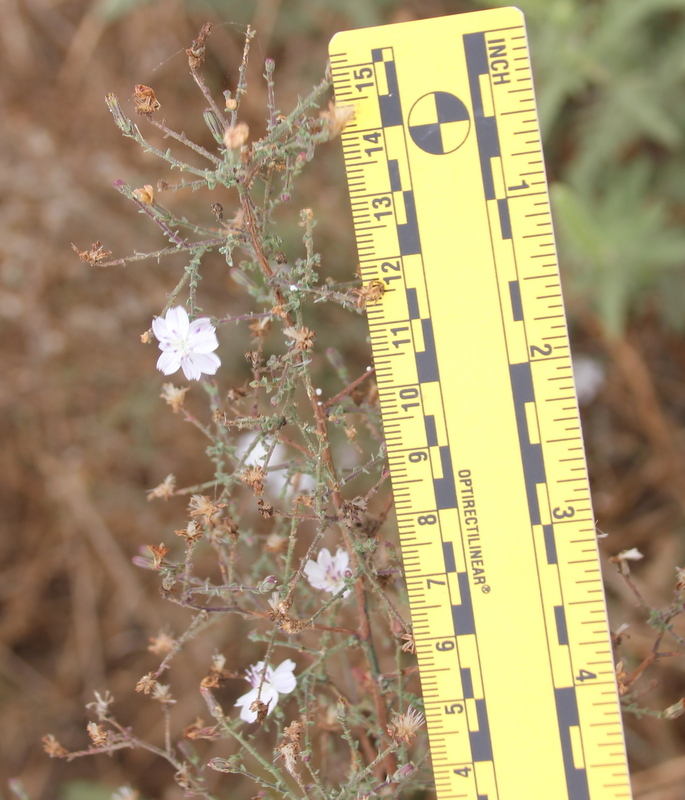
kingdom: Plantae
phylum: Tracheophyta
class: Magnoliopsida
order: Asterales
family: Asteraceae
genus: Stephanomeria
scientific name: Stephanomeria exigua
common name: Small wirelettuce
